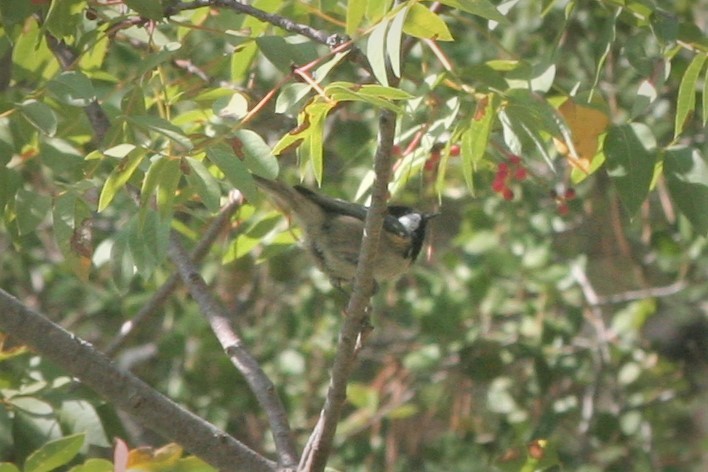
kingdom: Animalia
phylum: Chordata
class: Aves
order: Passeriformes
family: Paridae
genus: Periparus
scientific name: Periparus ater
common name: Coal tit
